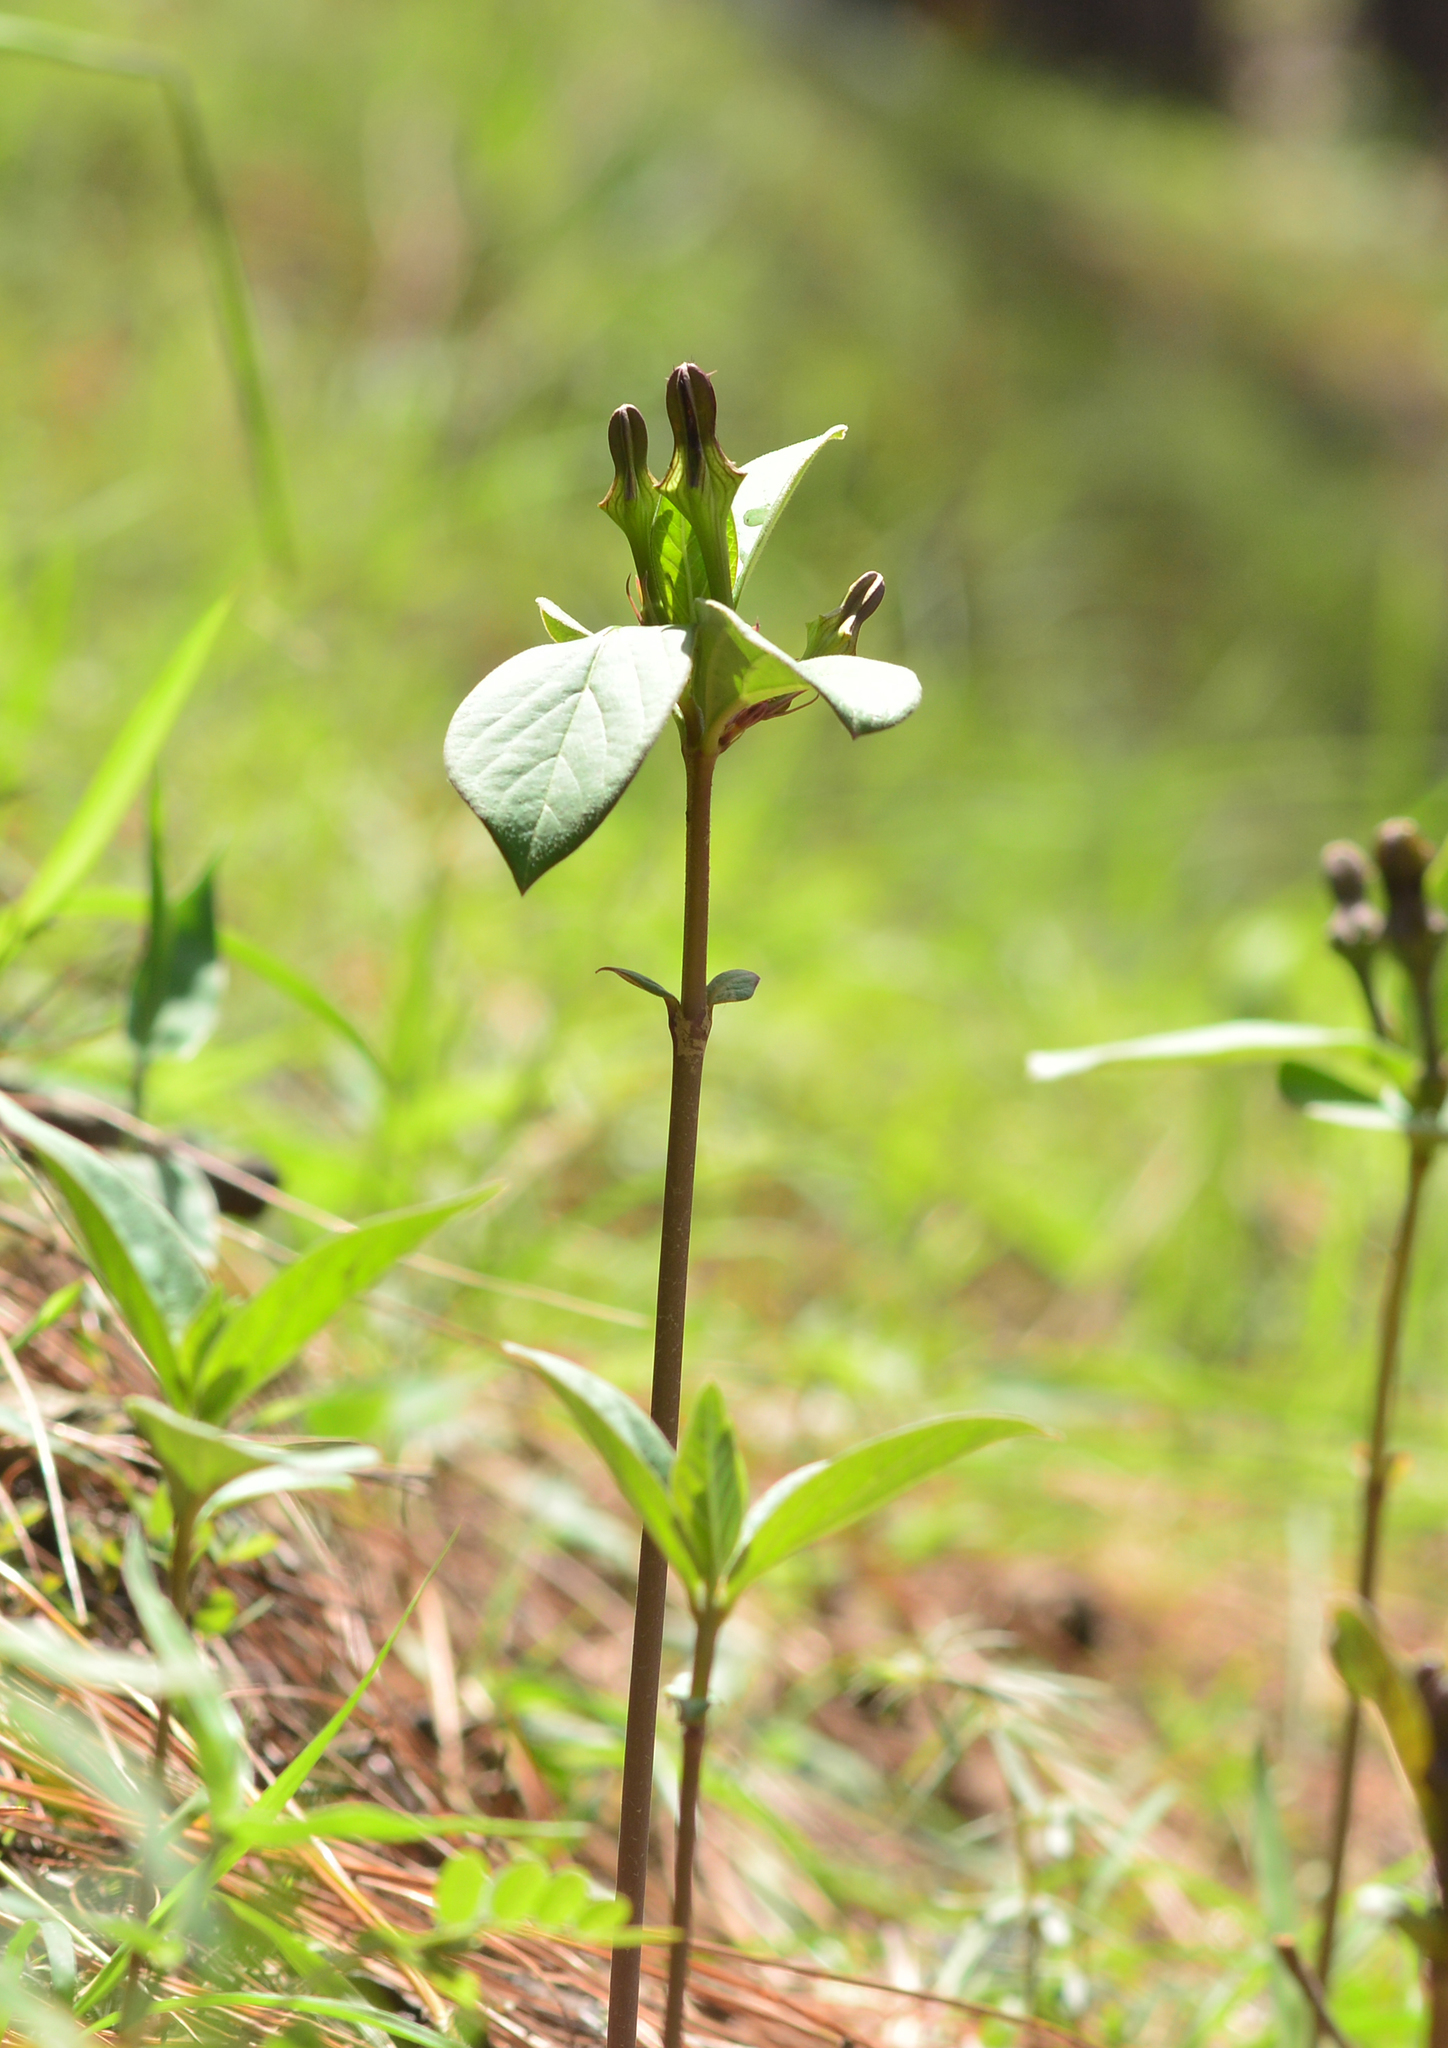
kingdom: Plantae
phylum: Tracheophyta
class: Magnoliopsida
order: Gentianales
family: Apocynaceae
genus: Ceropegia
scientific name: Ceropegia wallichii
